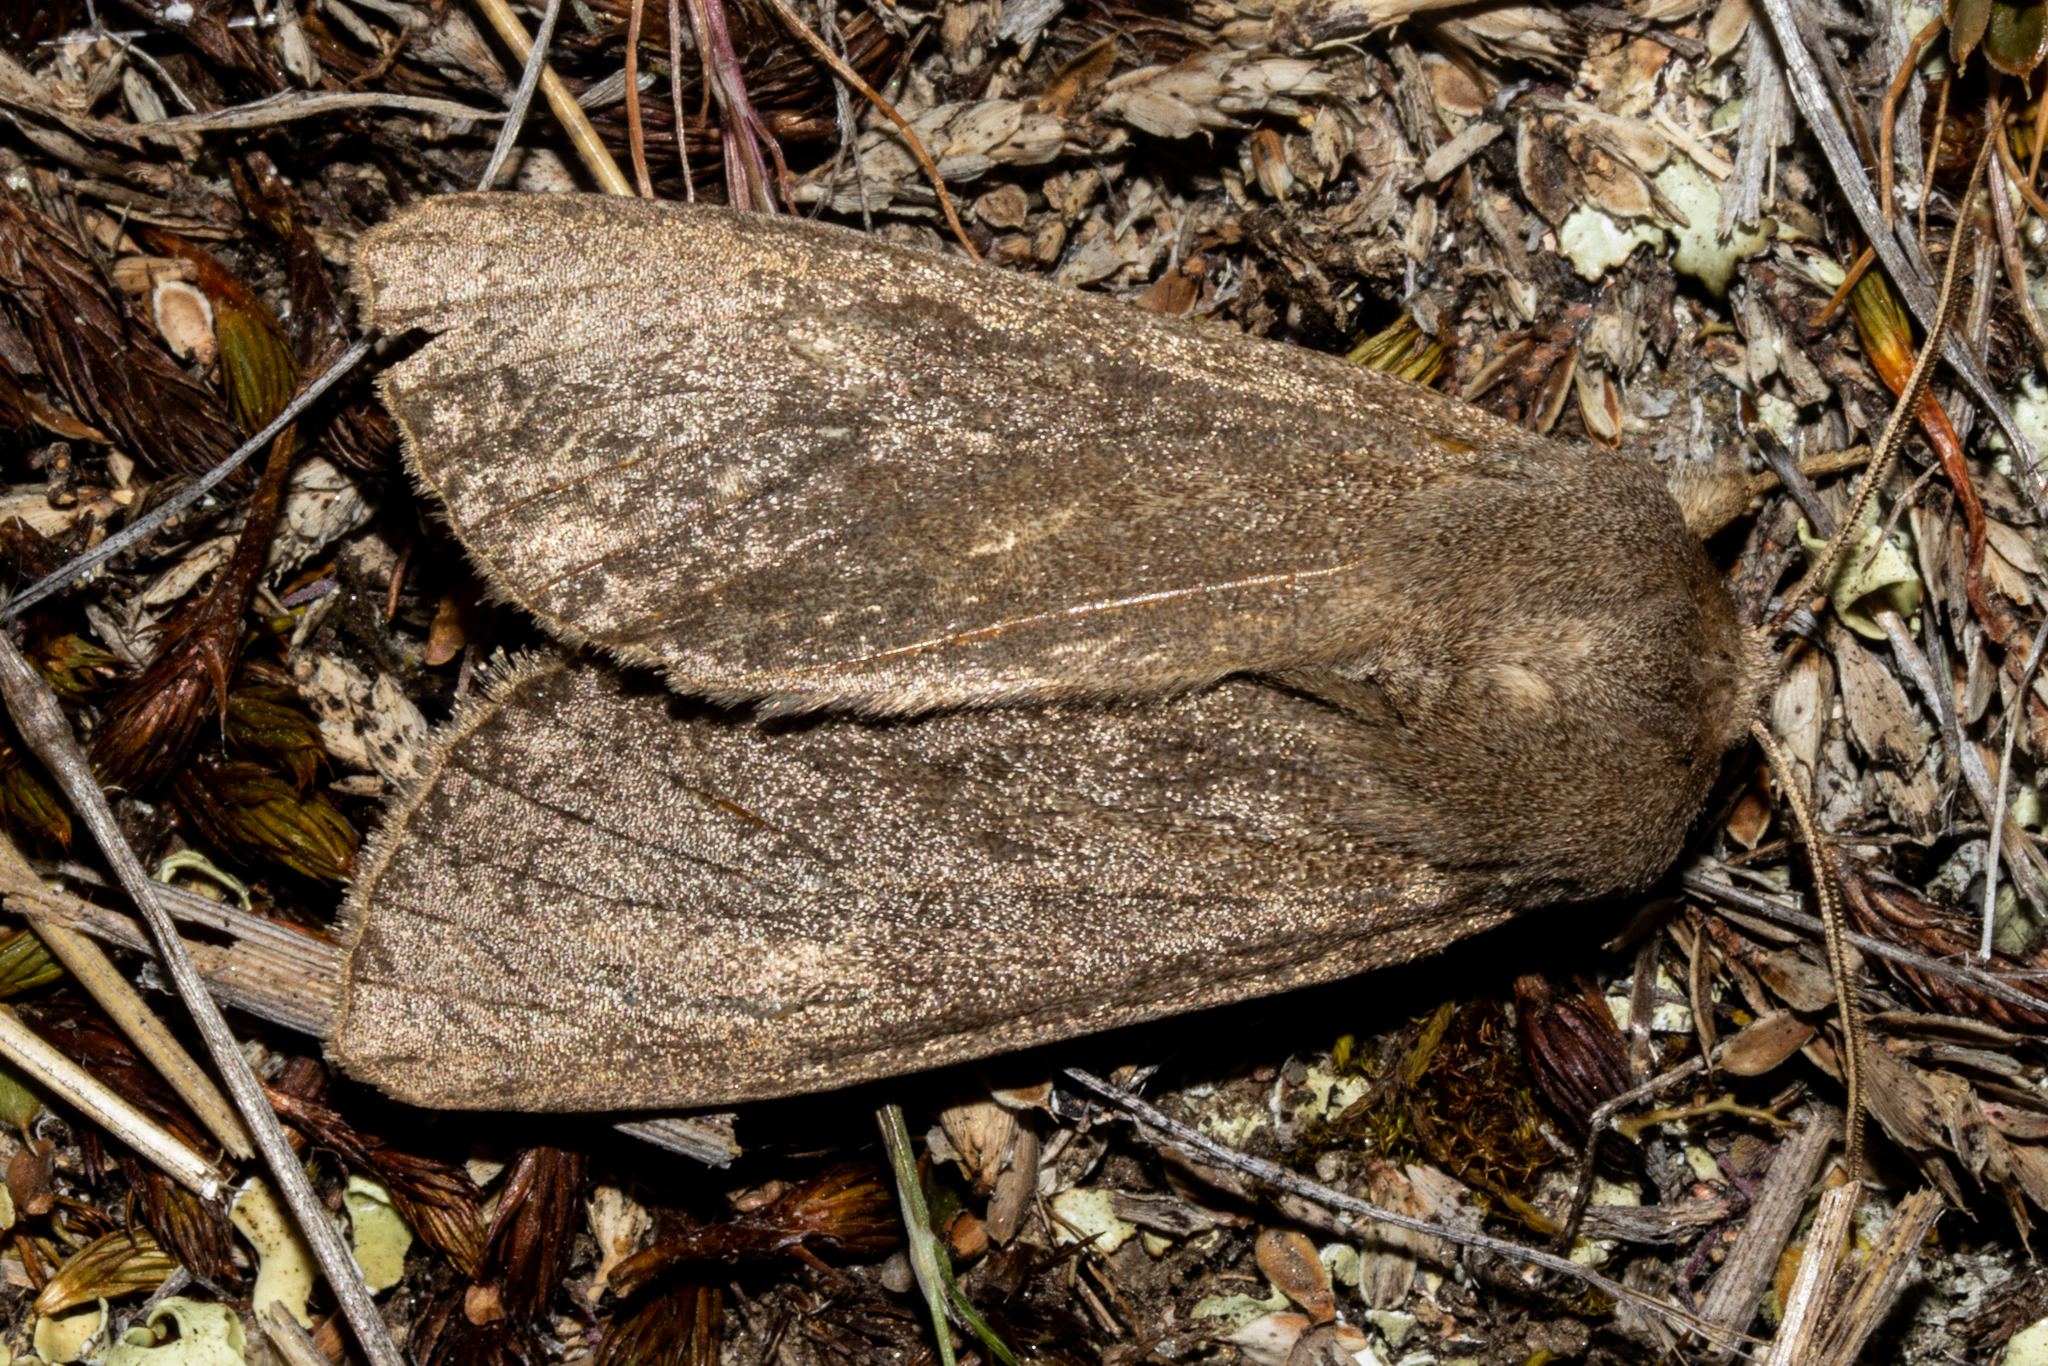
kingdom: Animalia
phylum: Arthropoda
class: Insecta
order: Lepidoptera
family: Noctuidae
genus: Ichneutica
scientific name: Ichneutica nullifera
